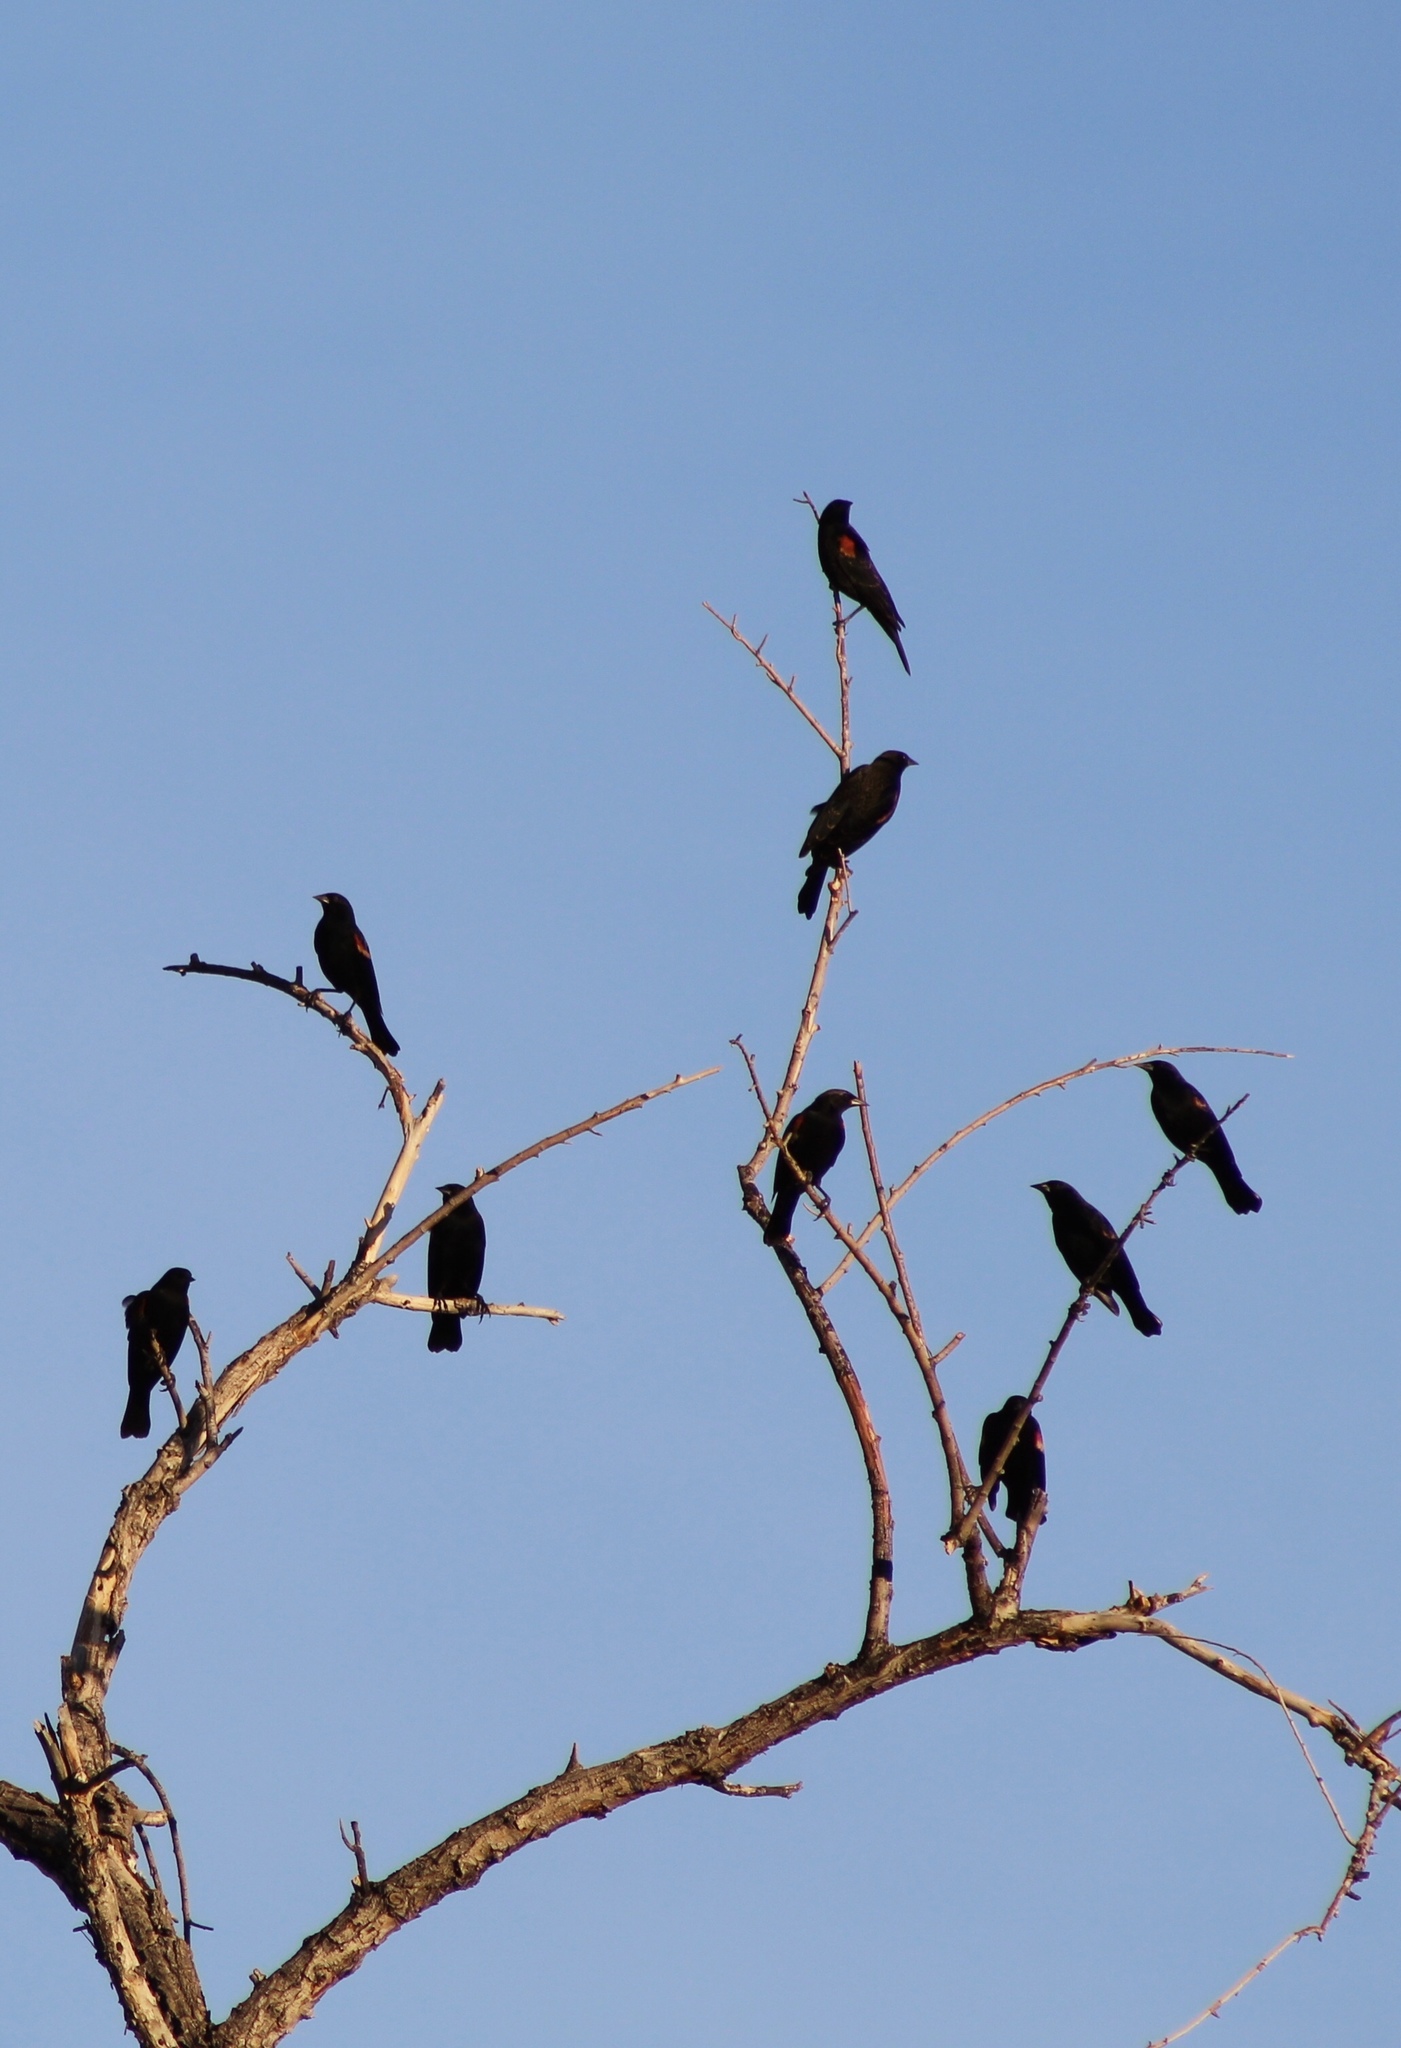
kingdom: Animalia
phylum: Chordata
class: Aves
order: Passeriformes
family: Icteridae
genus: Agelaius
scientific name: Agelaius phoeniceus
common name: Red-winged blackbird
